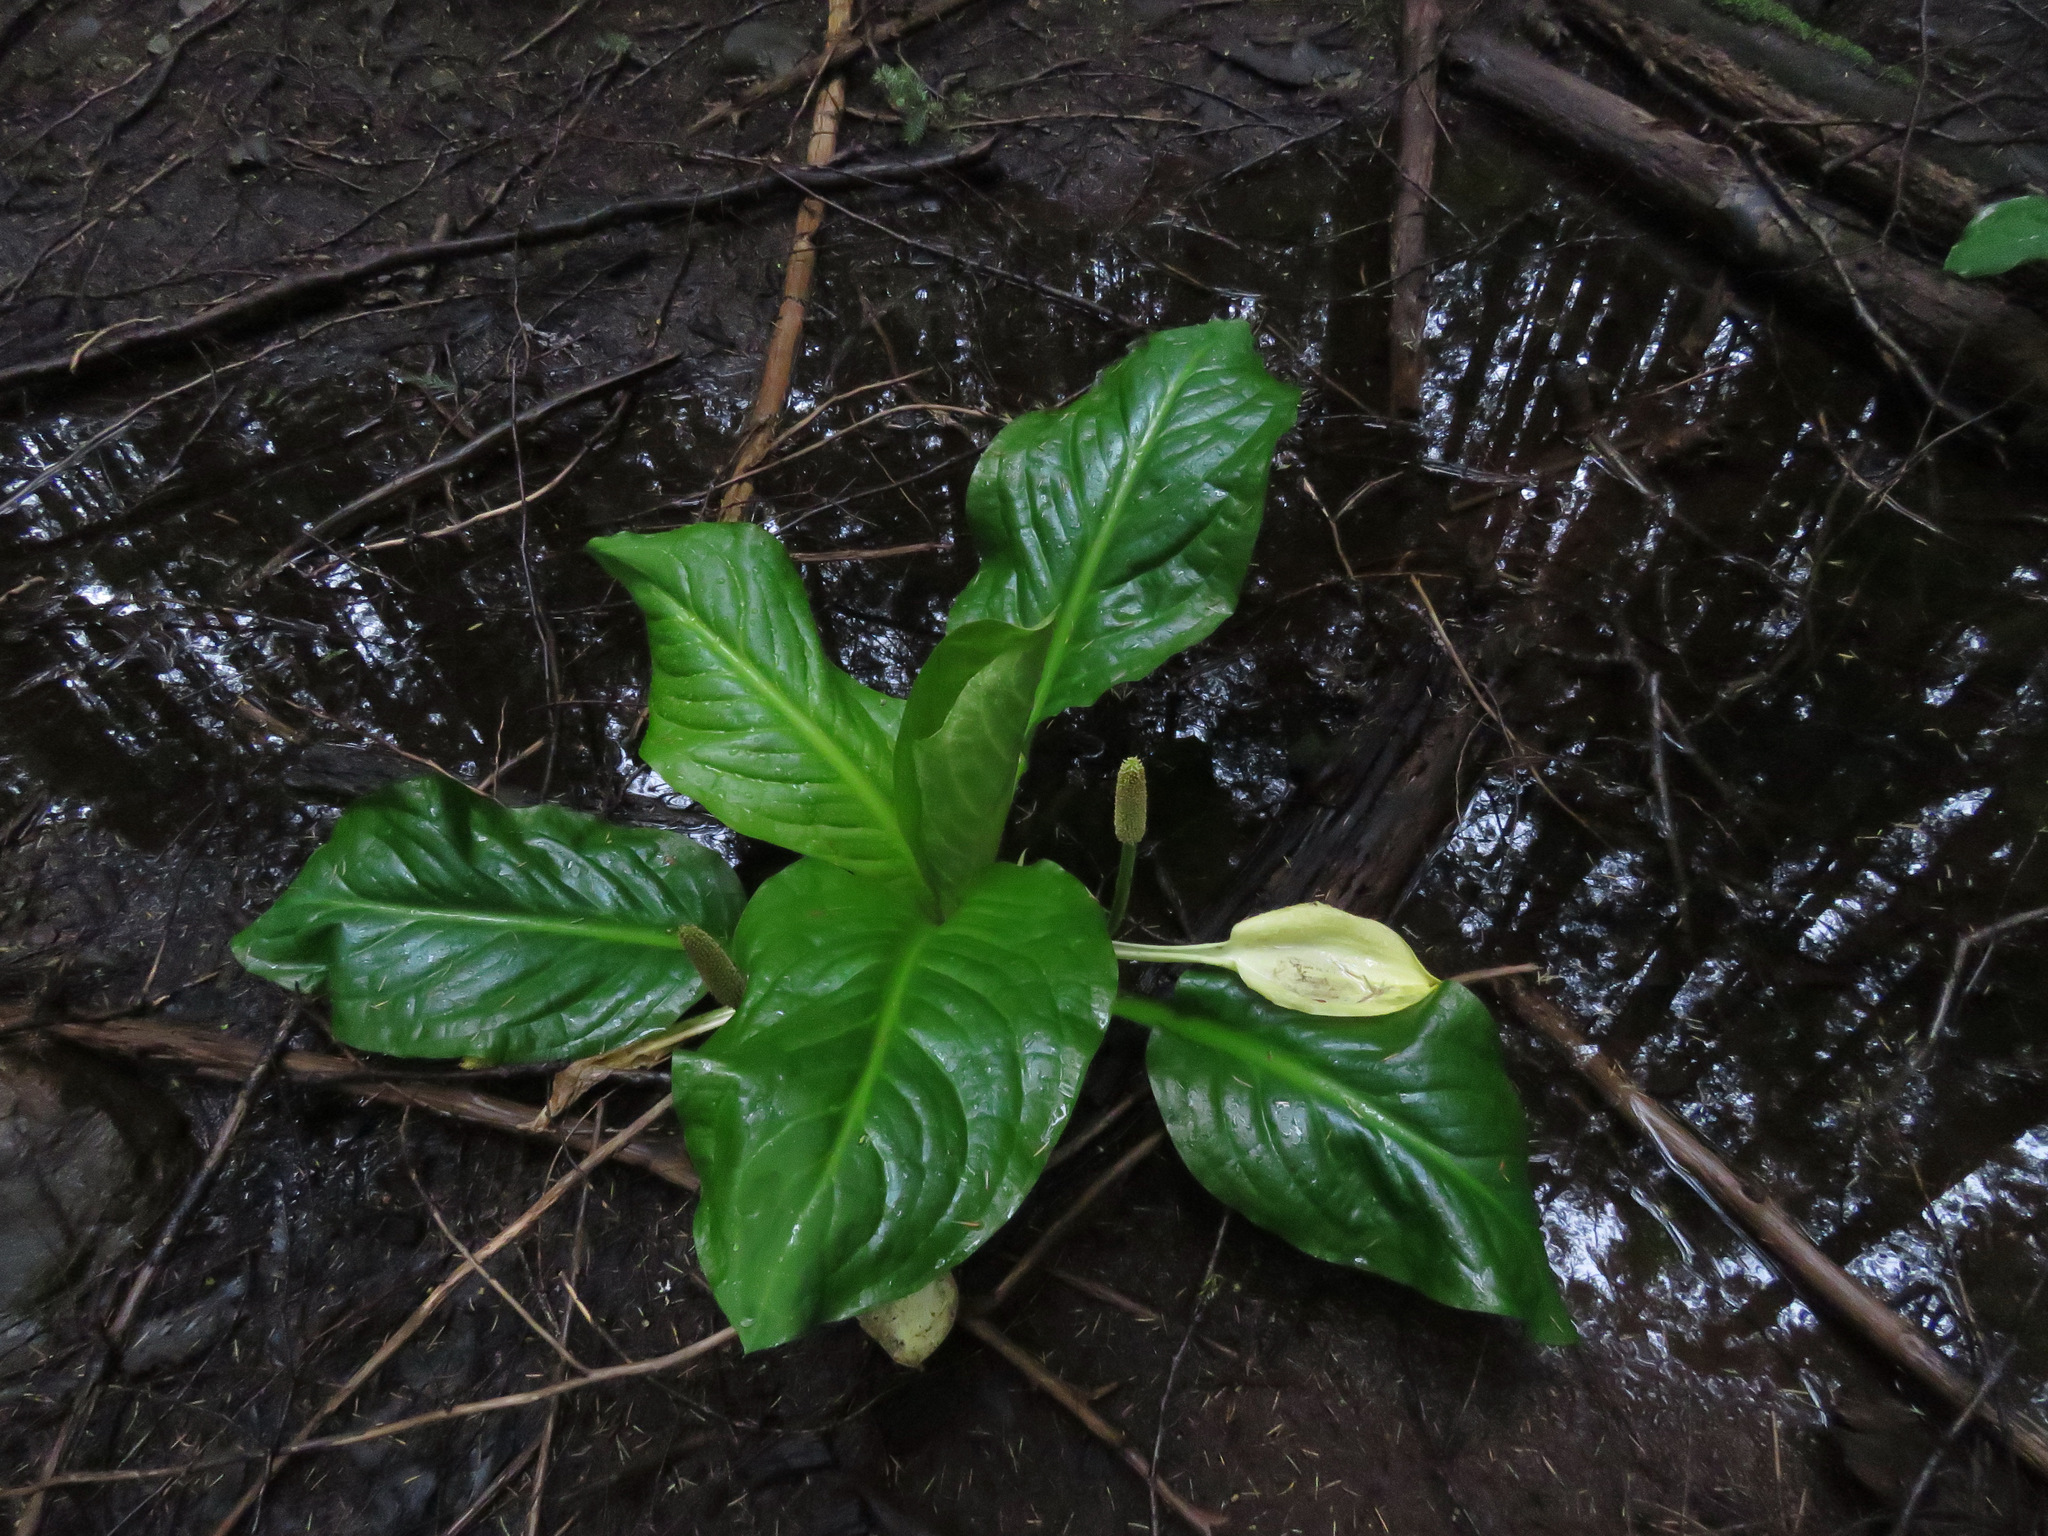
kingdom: Plantae
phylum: Tracheophyta
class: Liliopsida
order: Alismatales
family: Araceae
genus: Lysichiton
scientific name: Lysichiton americanus
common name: American skunk cabbage
